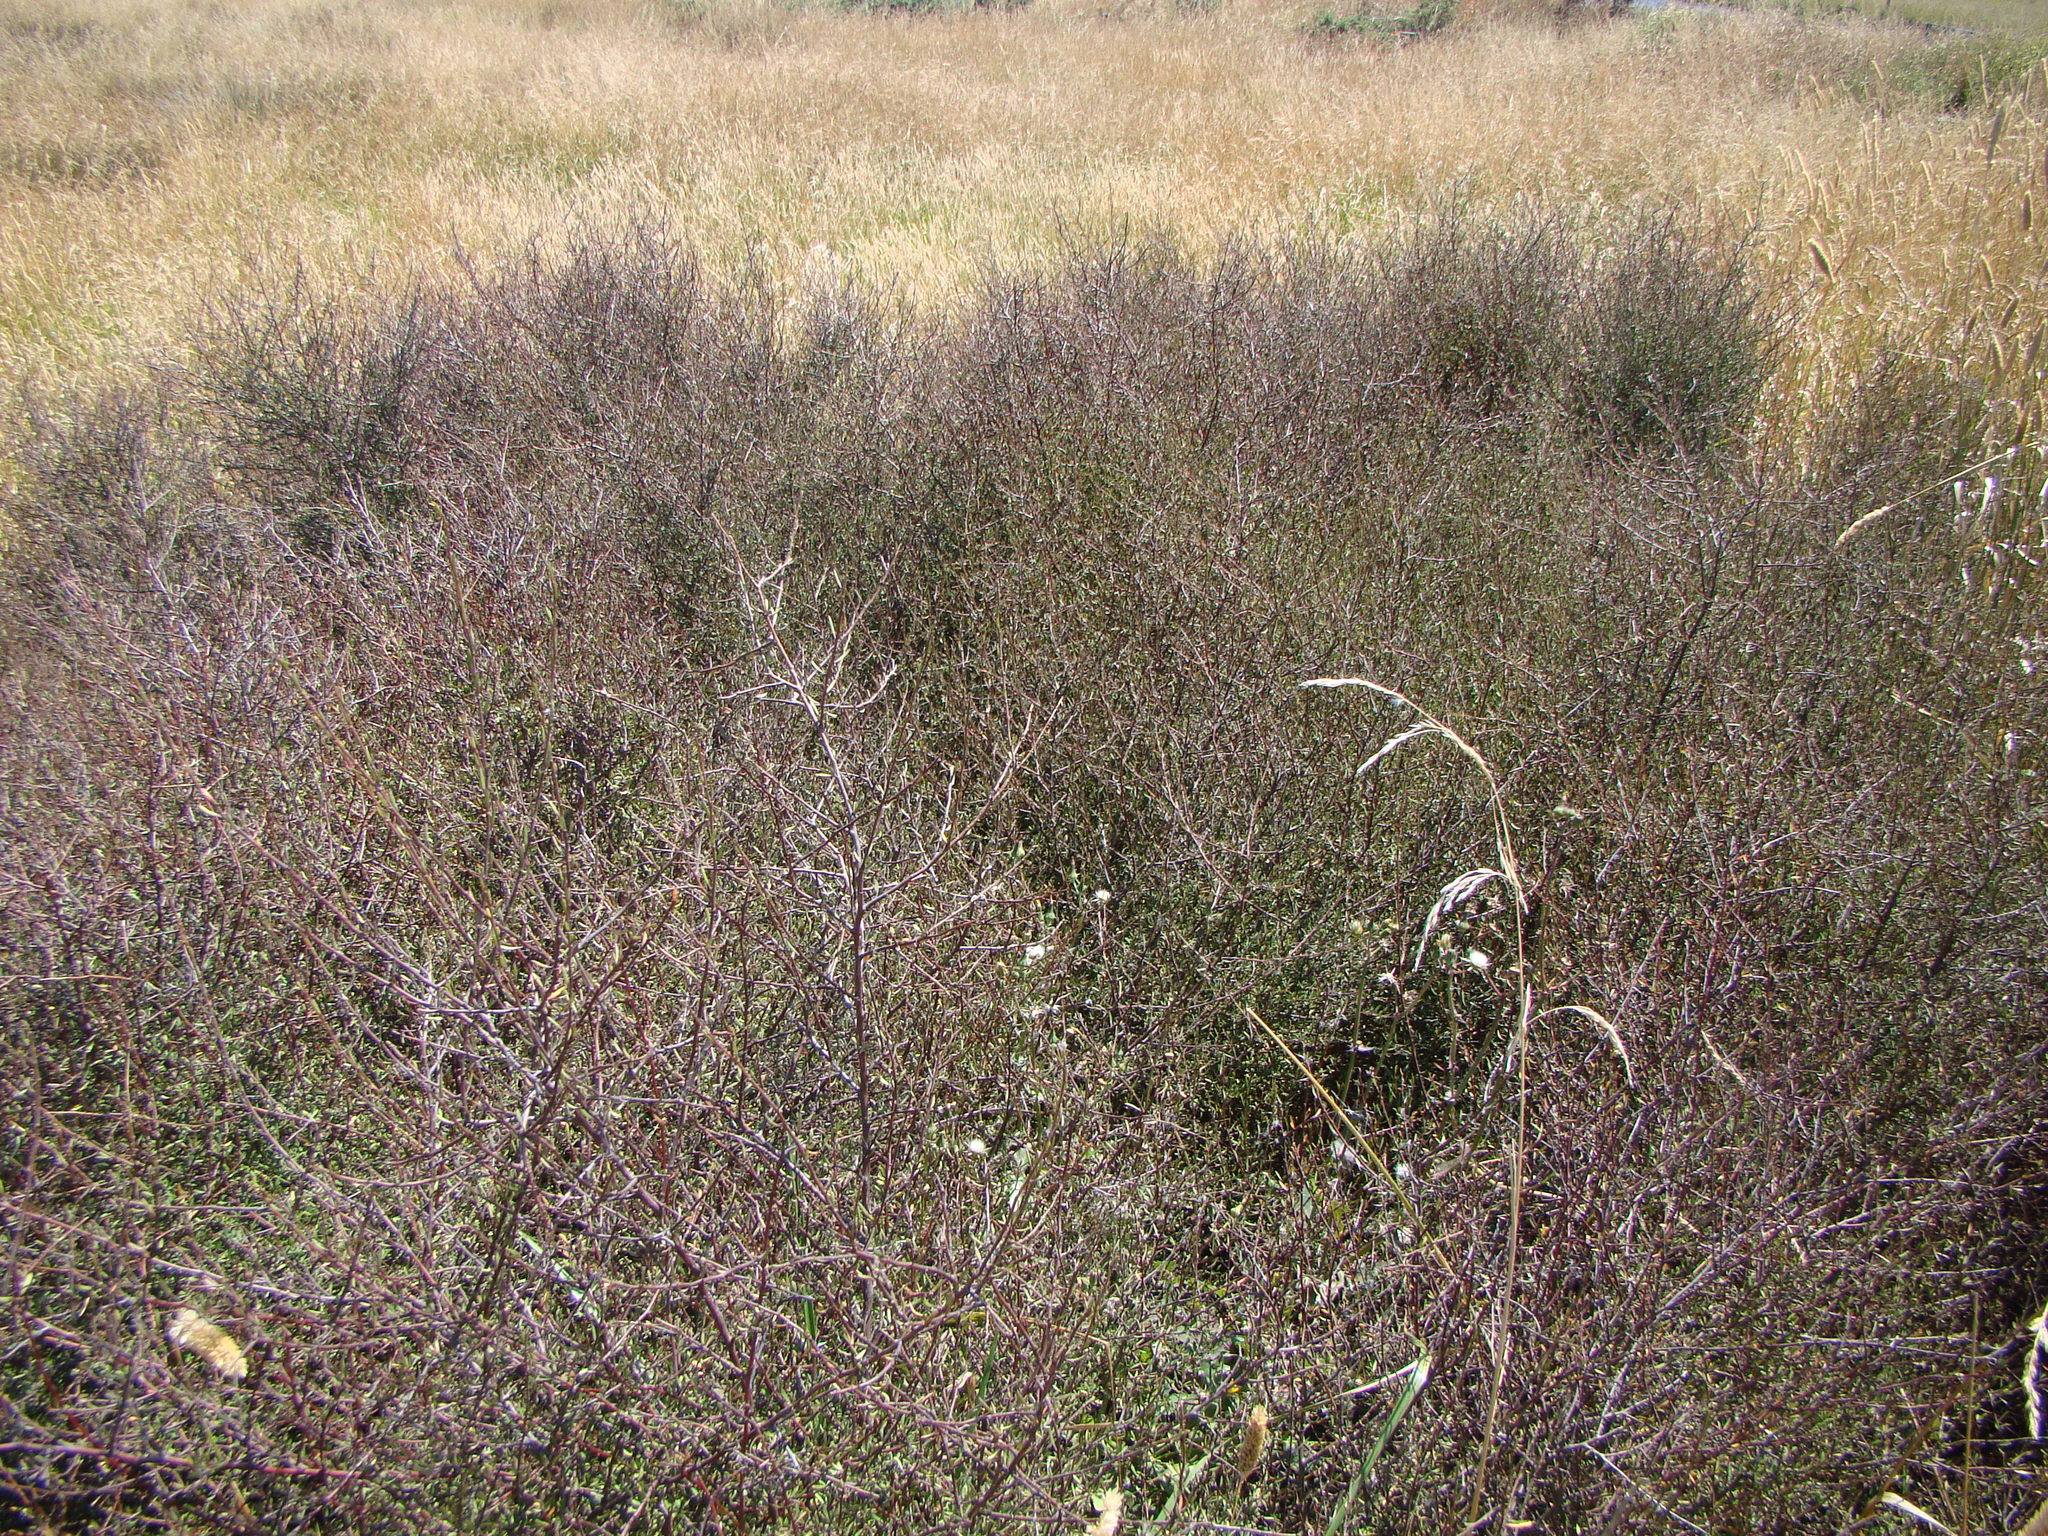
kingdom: Plantae
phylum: Tracheophyta
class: Magnoliopsida
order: Malvales
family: Malvaceae
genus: Plagianthus
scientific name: Plagianthus divaricatus
